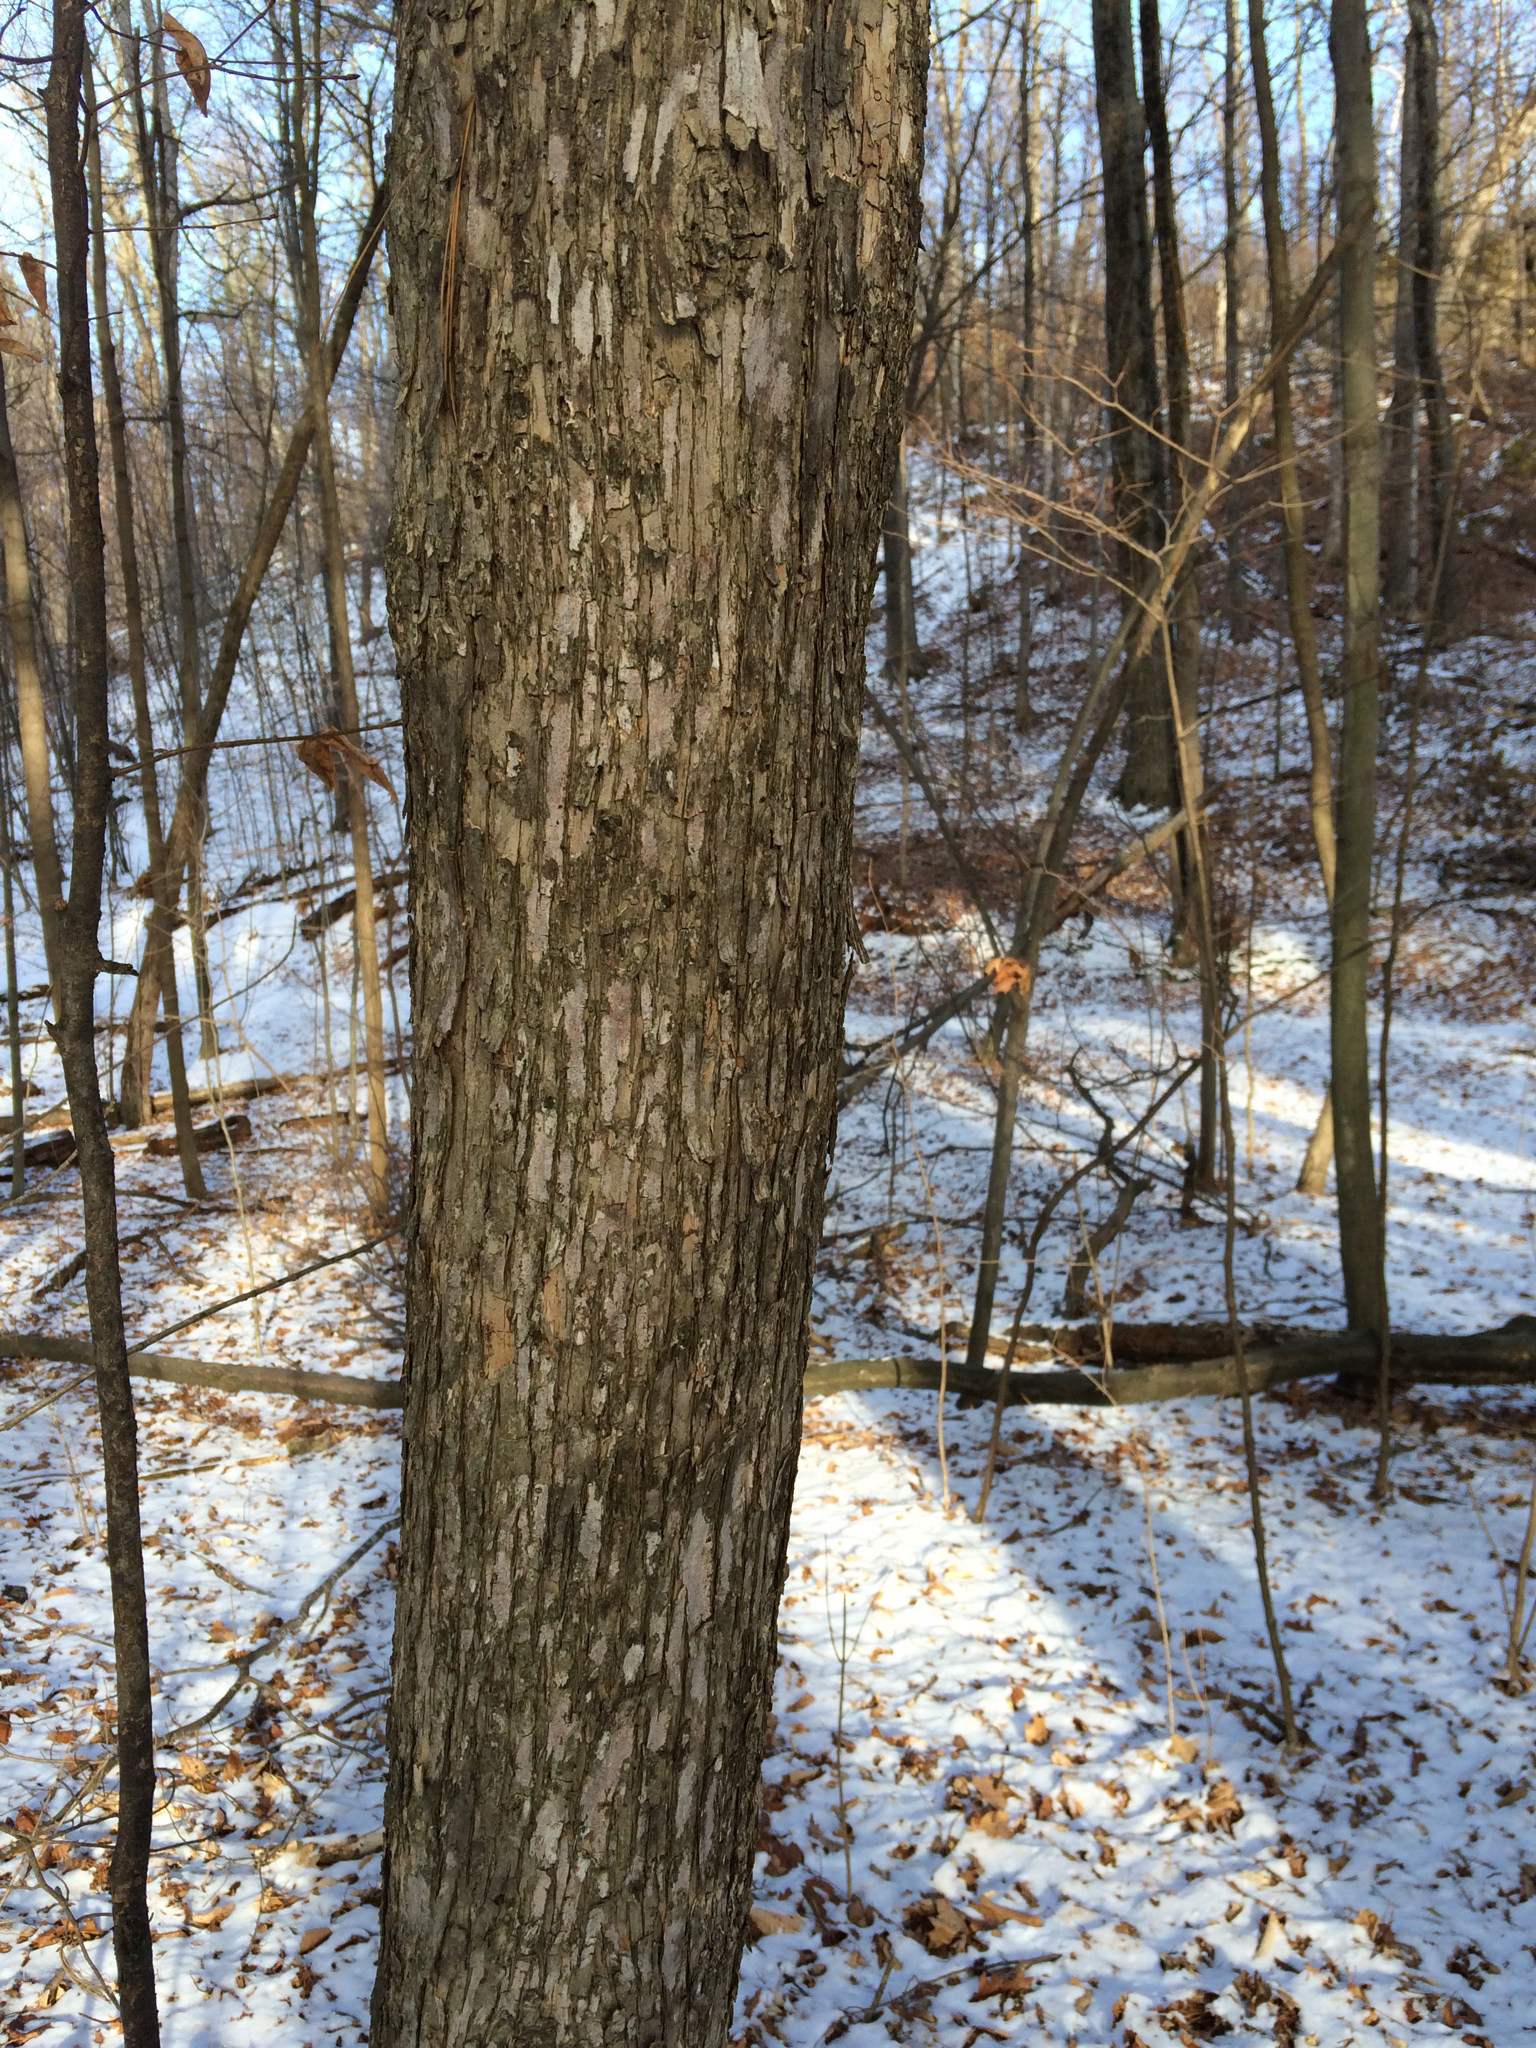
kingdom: Plantae
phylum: Tracheophyta
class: Magnoliopsida
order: Fagales
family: Betulaceae
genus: Ostrya
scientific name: Ostrya virginiana
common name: Ironwood
